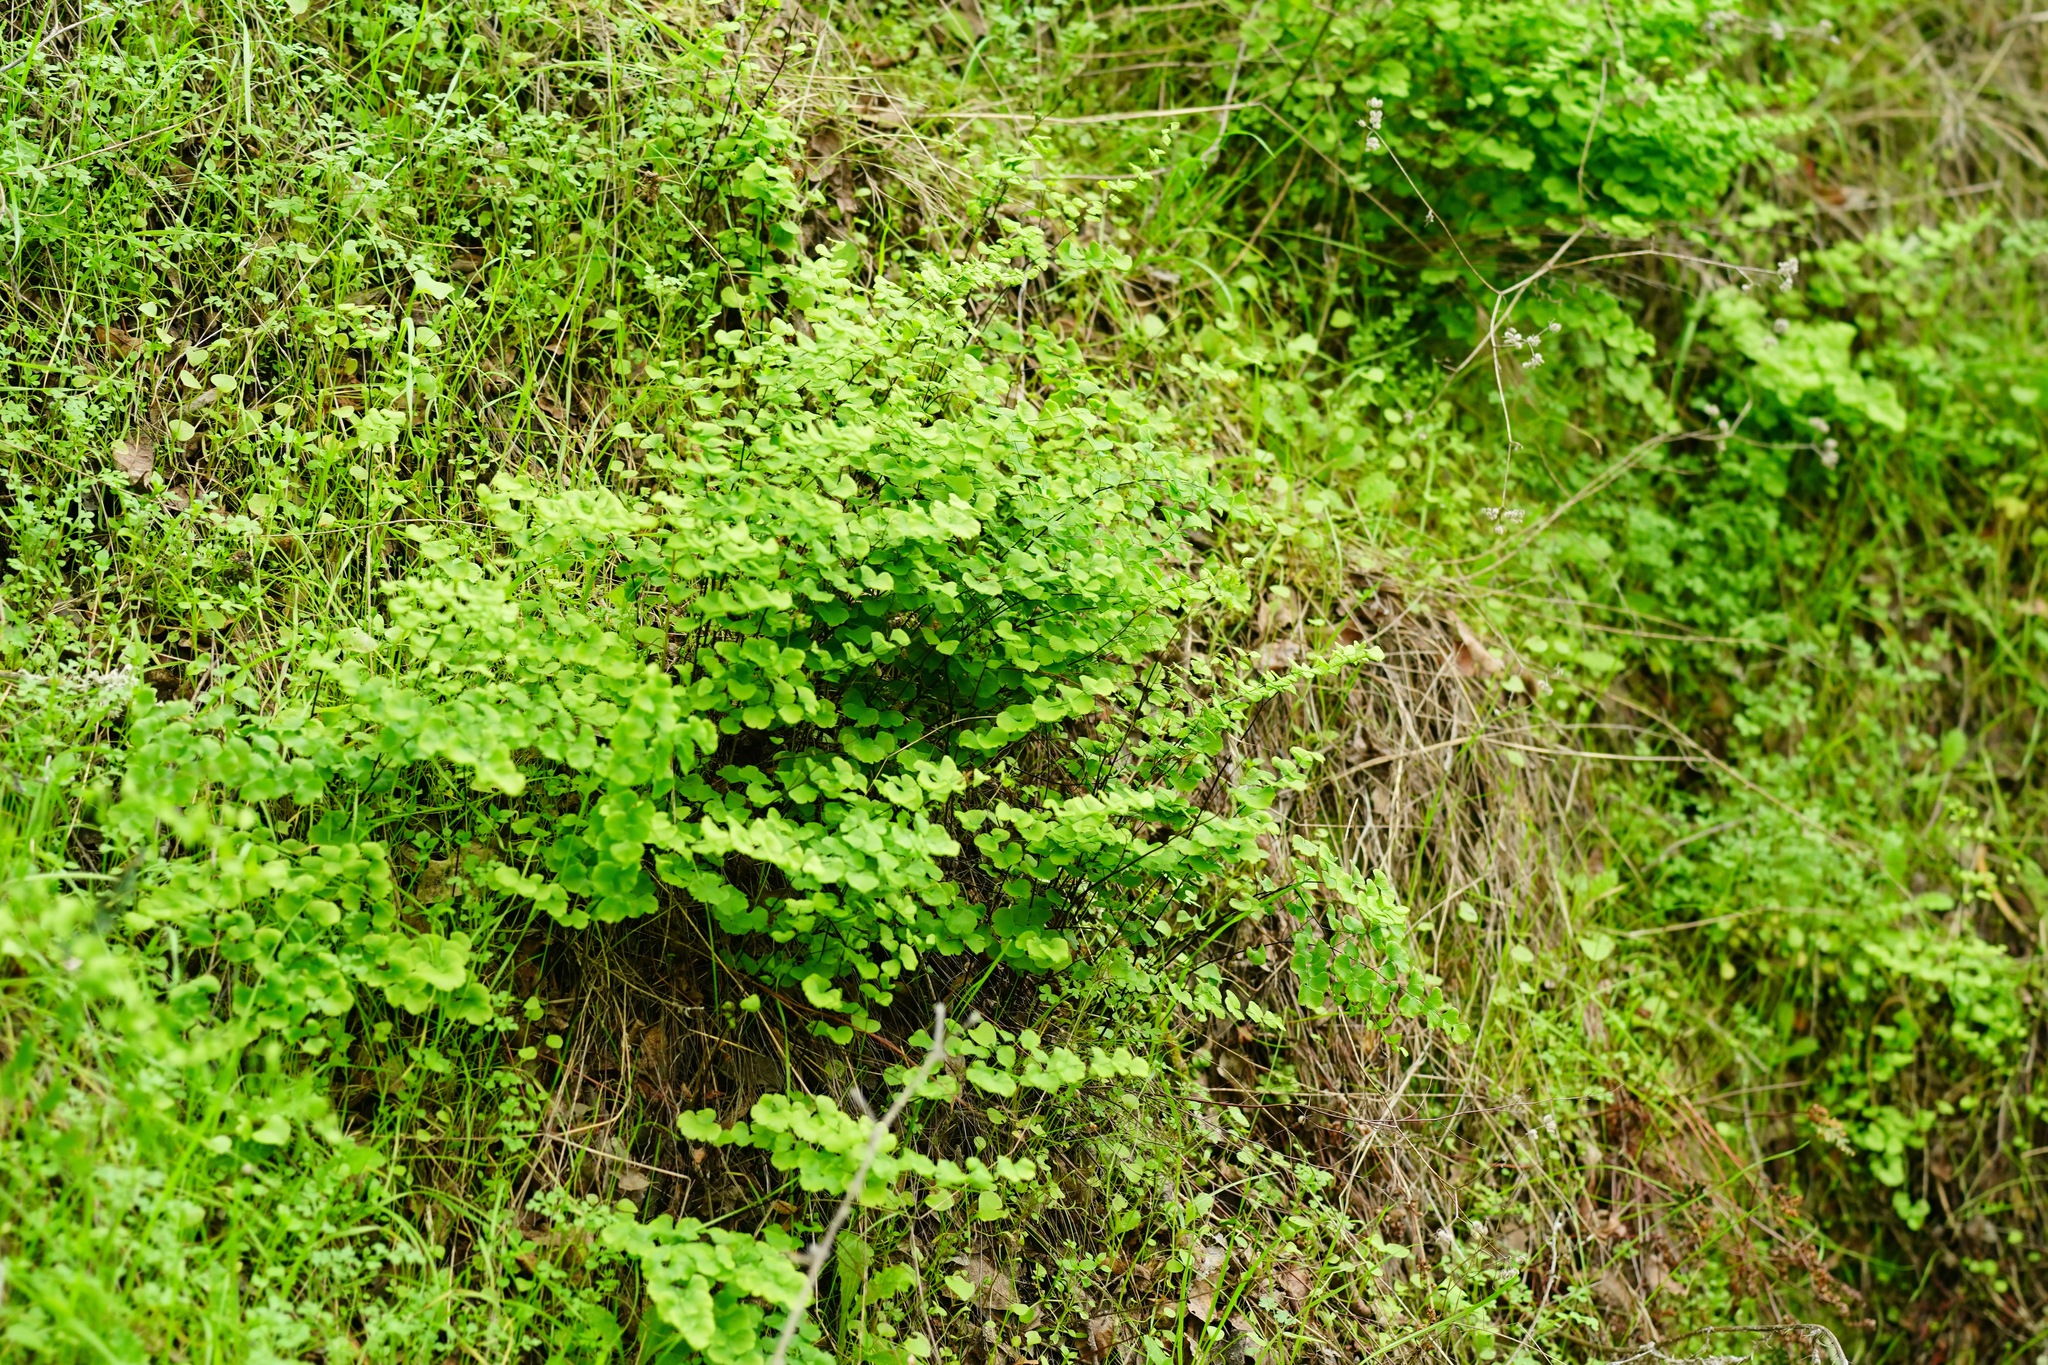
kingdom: Plantae
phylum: Tracheophyta
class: Polypodiopsida
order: Polypodiales
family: Pteridaceae
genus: Adiantum
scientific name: Adiantum jordanii
